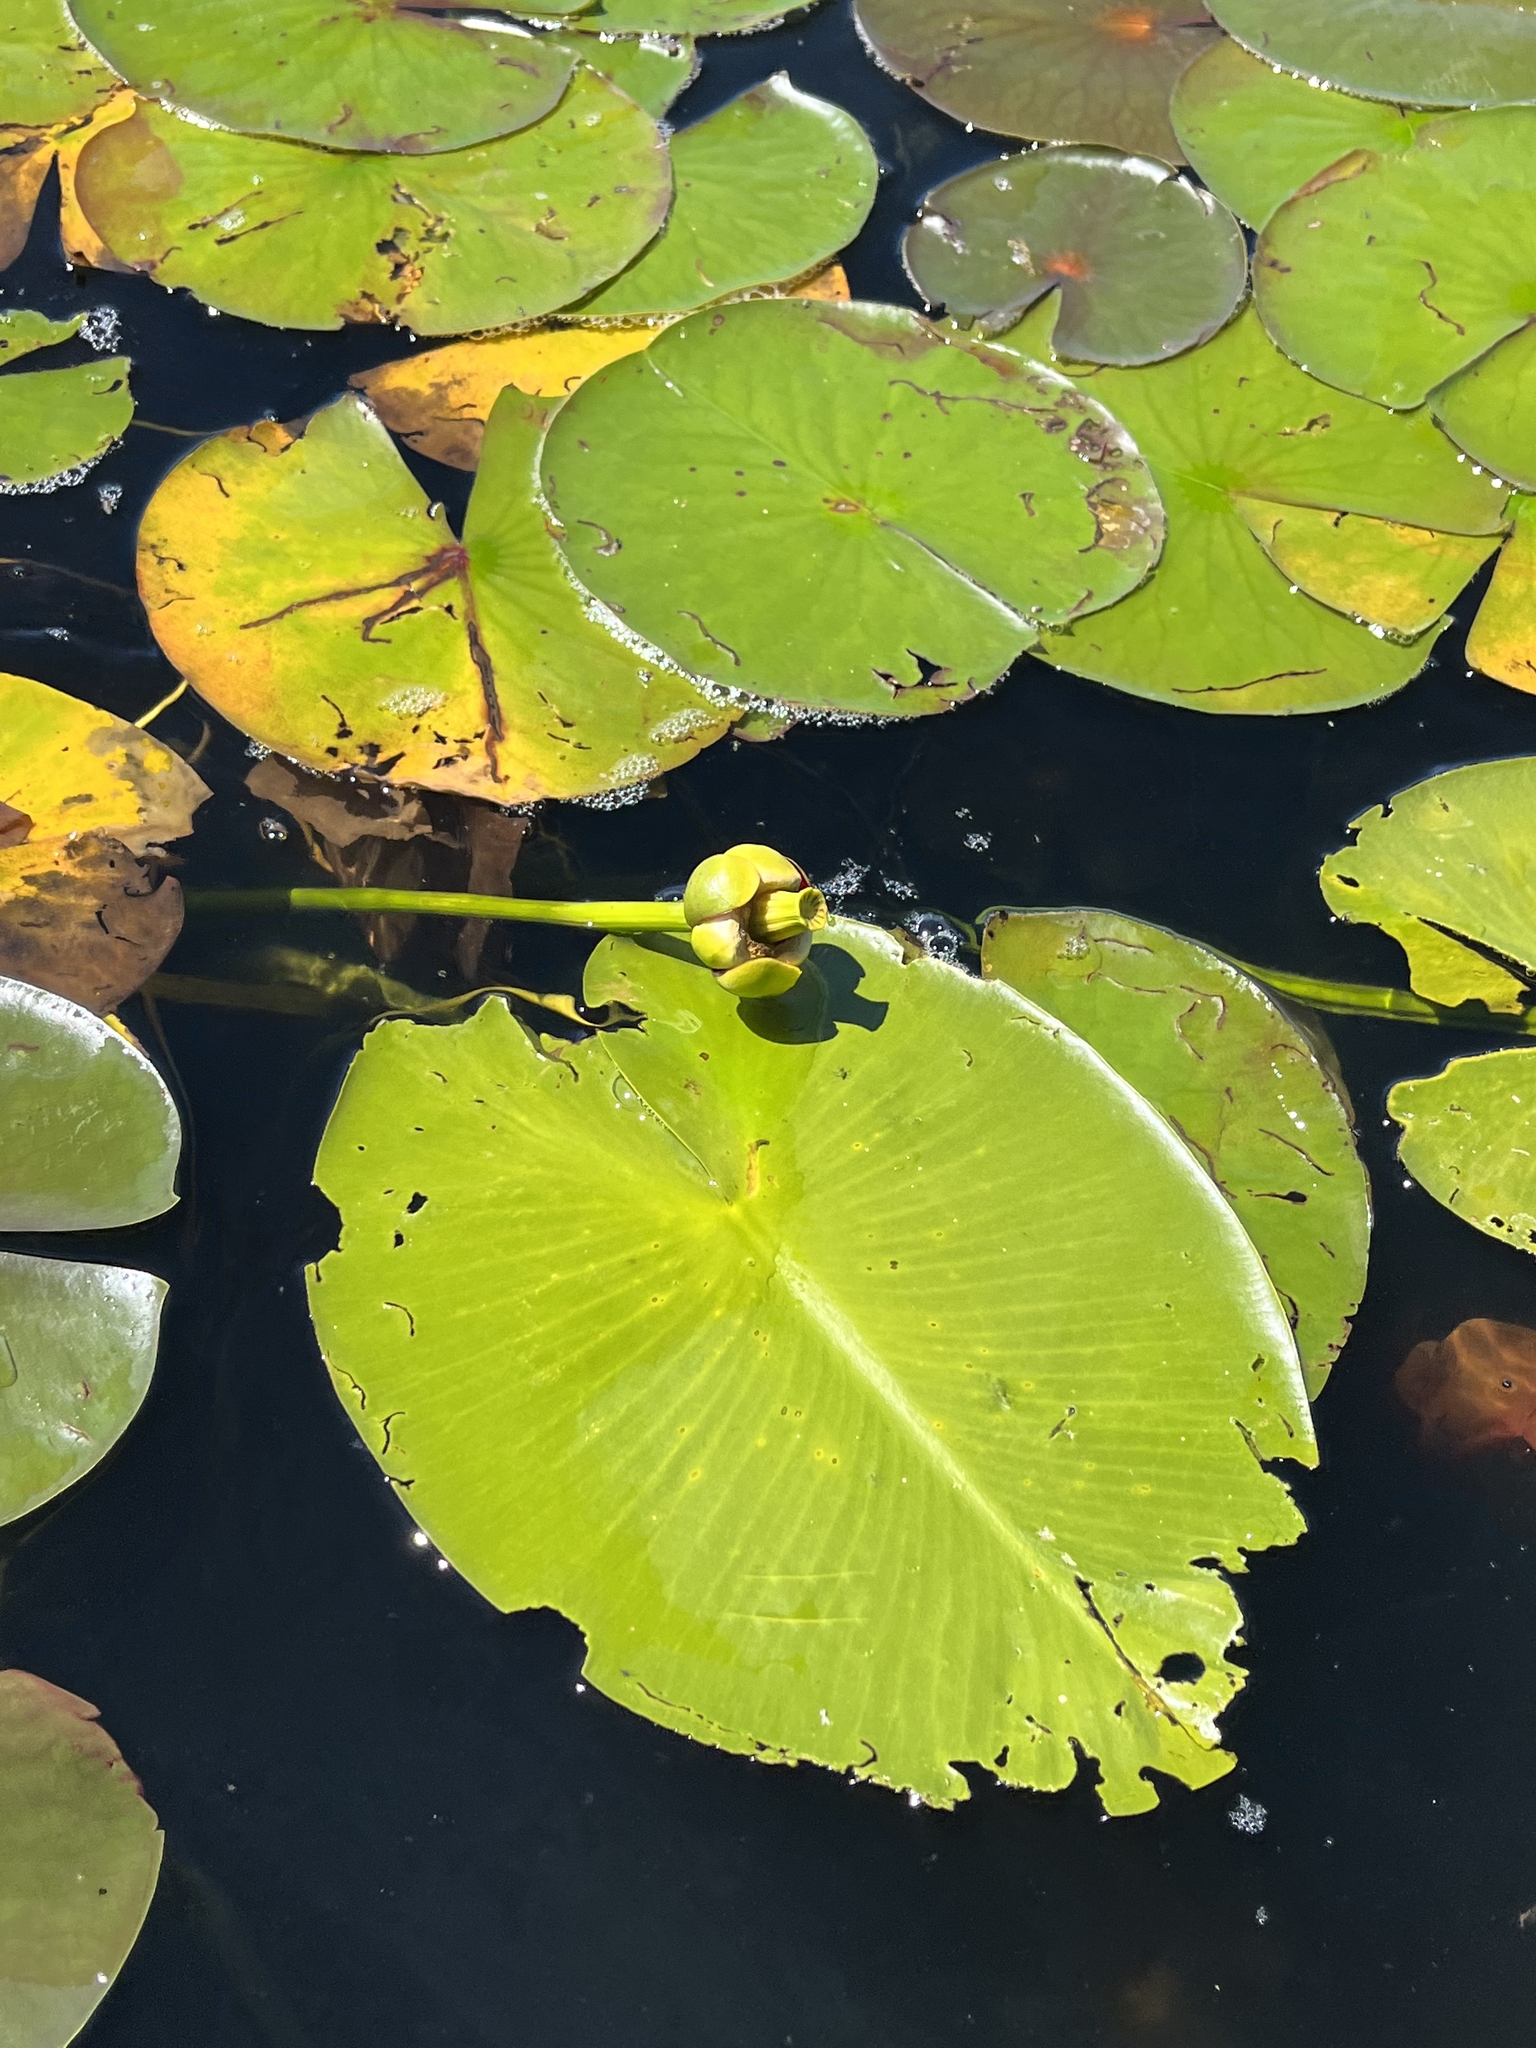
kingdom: Plantae
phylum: Tracheophyta
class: Magnoliopsida
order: Nymphaeales
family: Nymphaeaceae
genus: Nuphar
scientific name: Nuphar variegata
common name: Beaver-root
